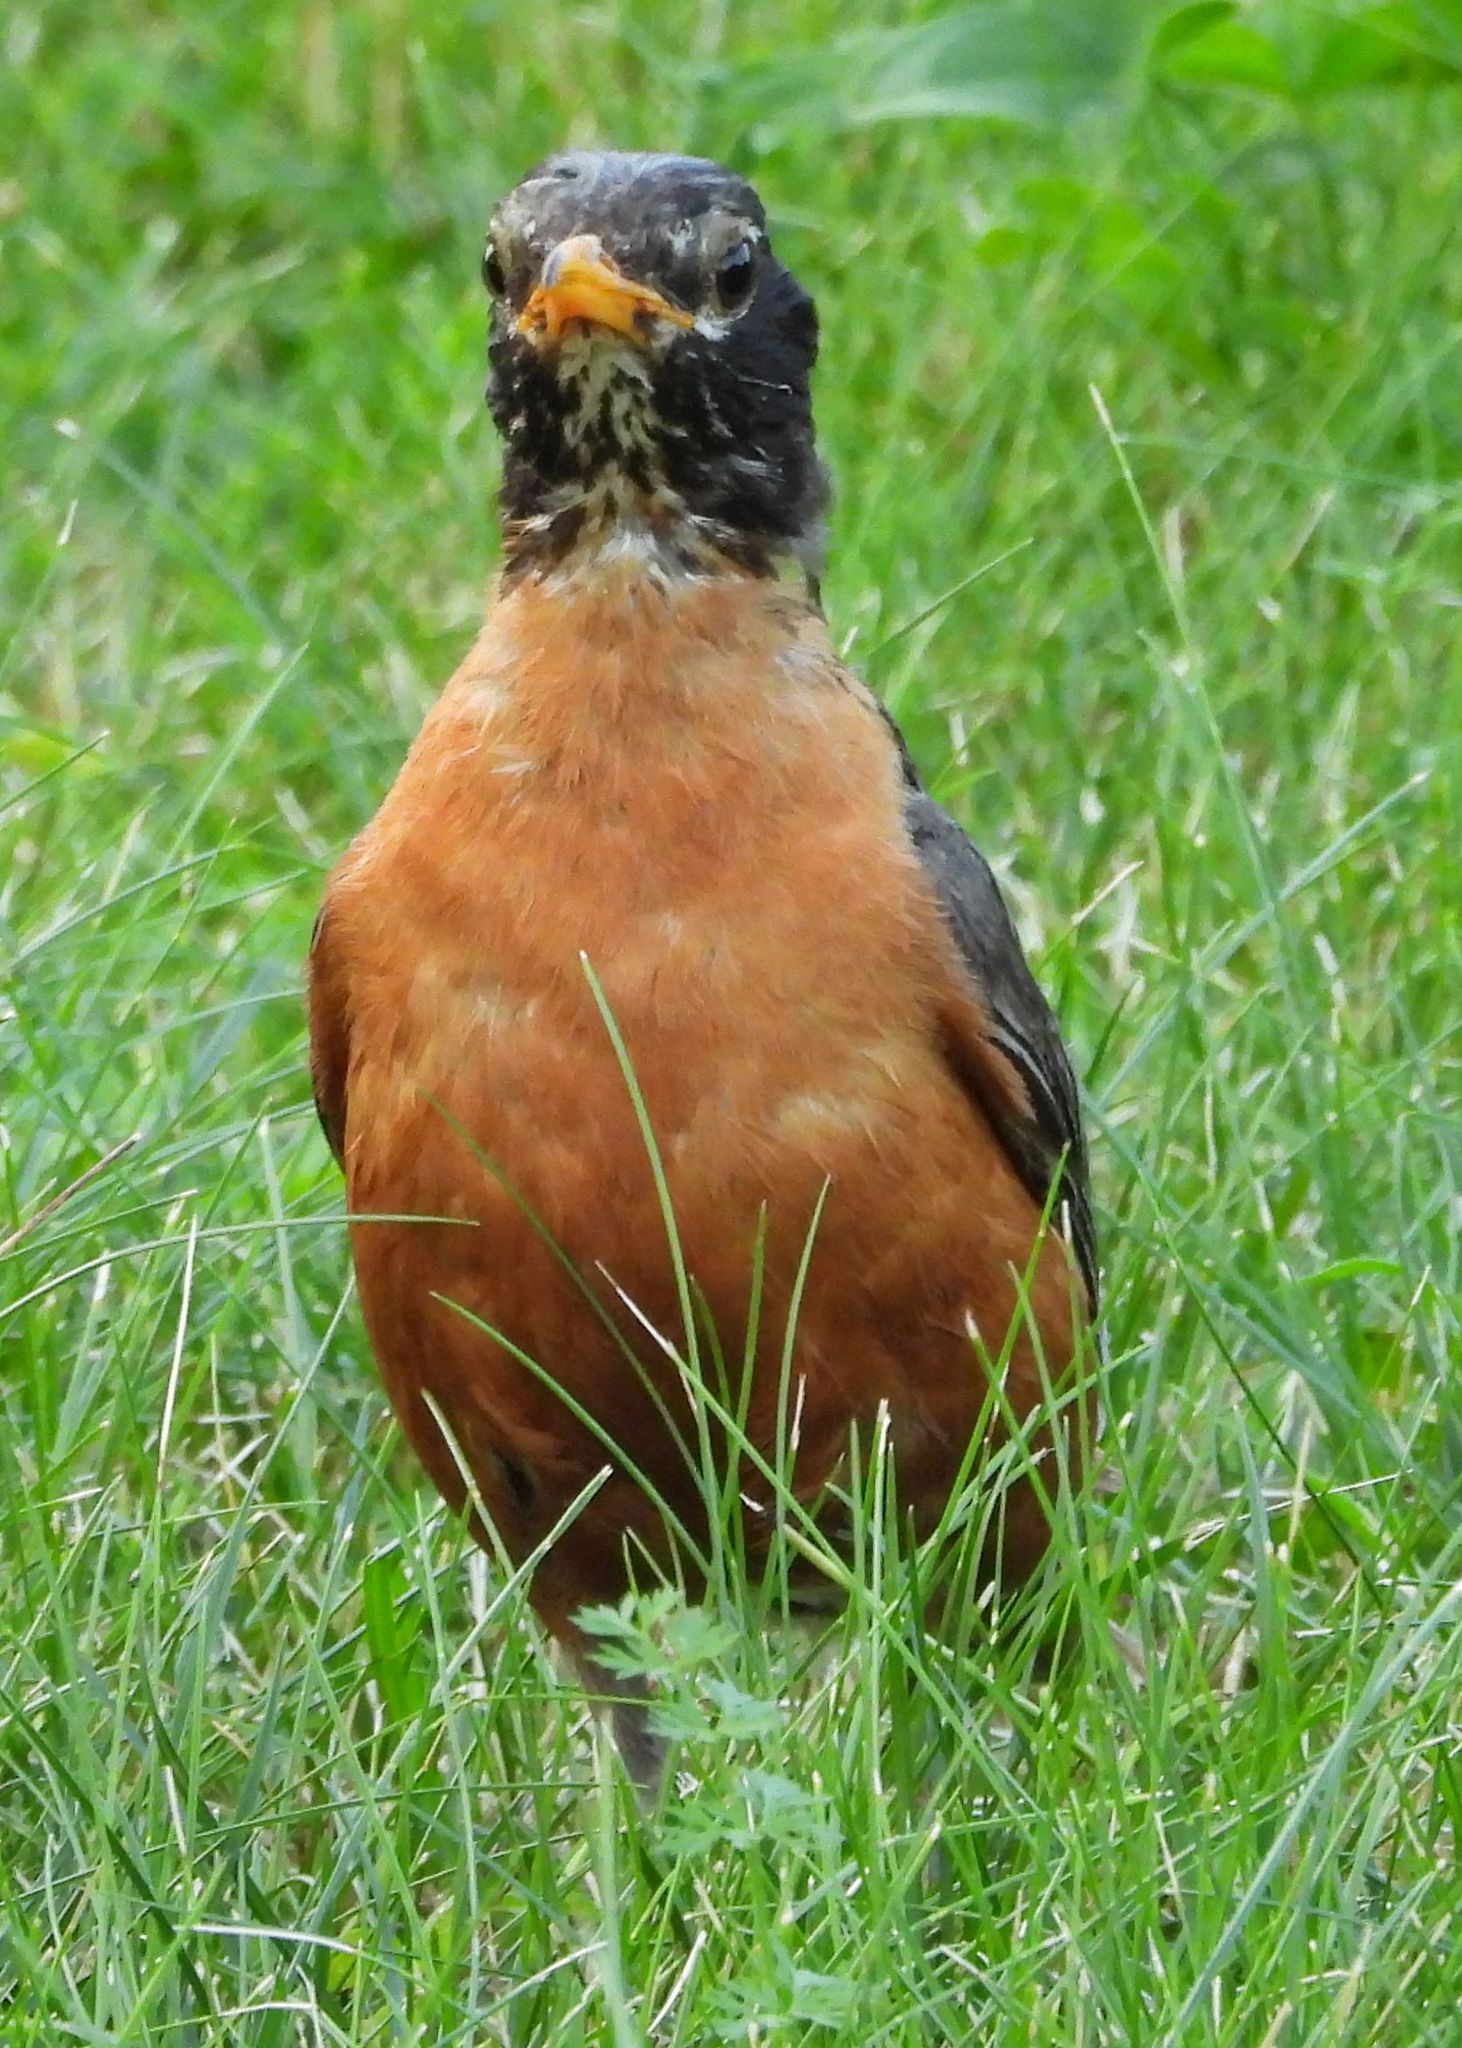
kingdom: Animalia
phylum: Chordata
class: Aves
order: Passeriformes
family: Turdidae
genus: Turdus
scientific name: Turdus migratorius
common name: American robin
